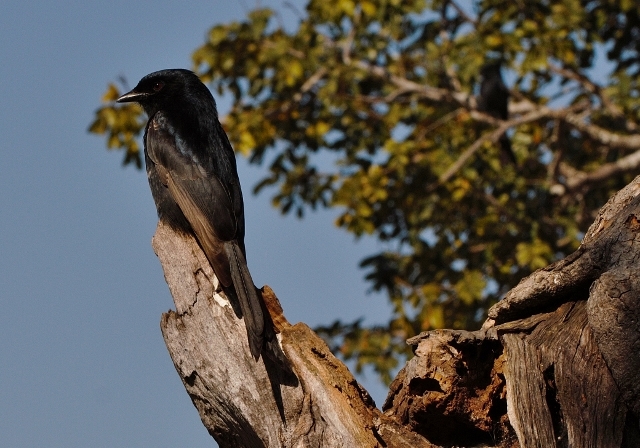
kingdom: Animalia
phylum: Chordata
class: Aves
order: Passeriformes
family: Dicruridae
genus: Dicrurus
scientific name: Dicrurus adsimilis
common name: Fork-tailed drongo
